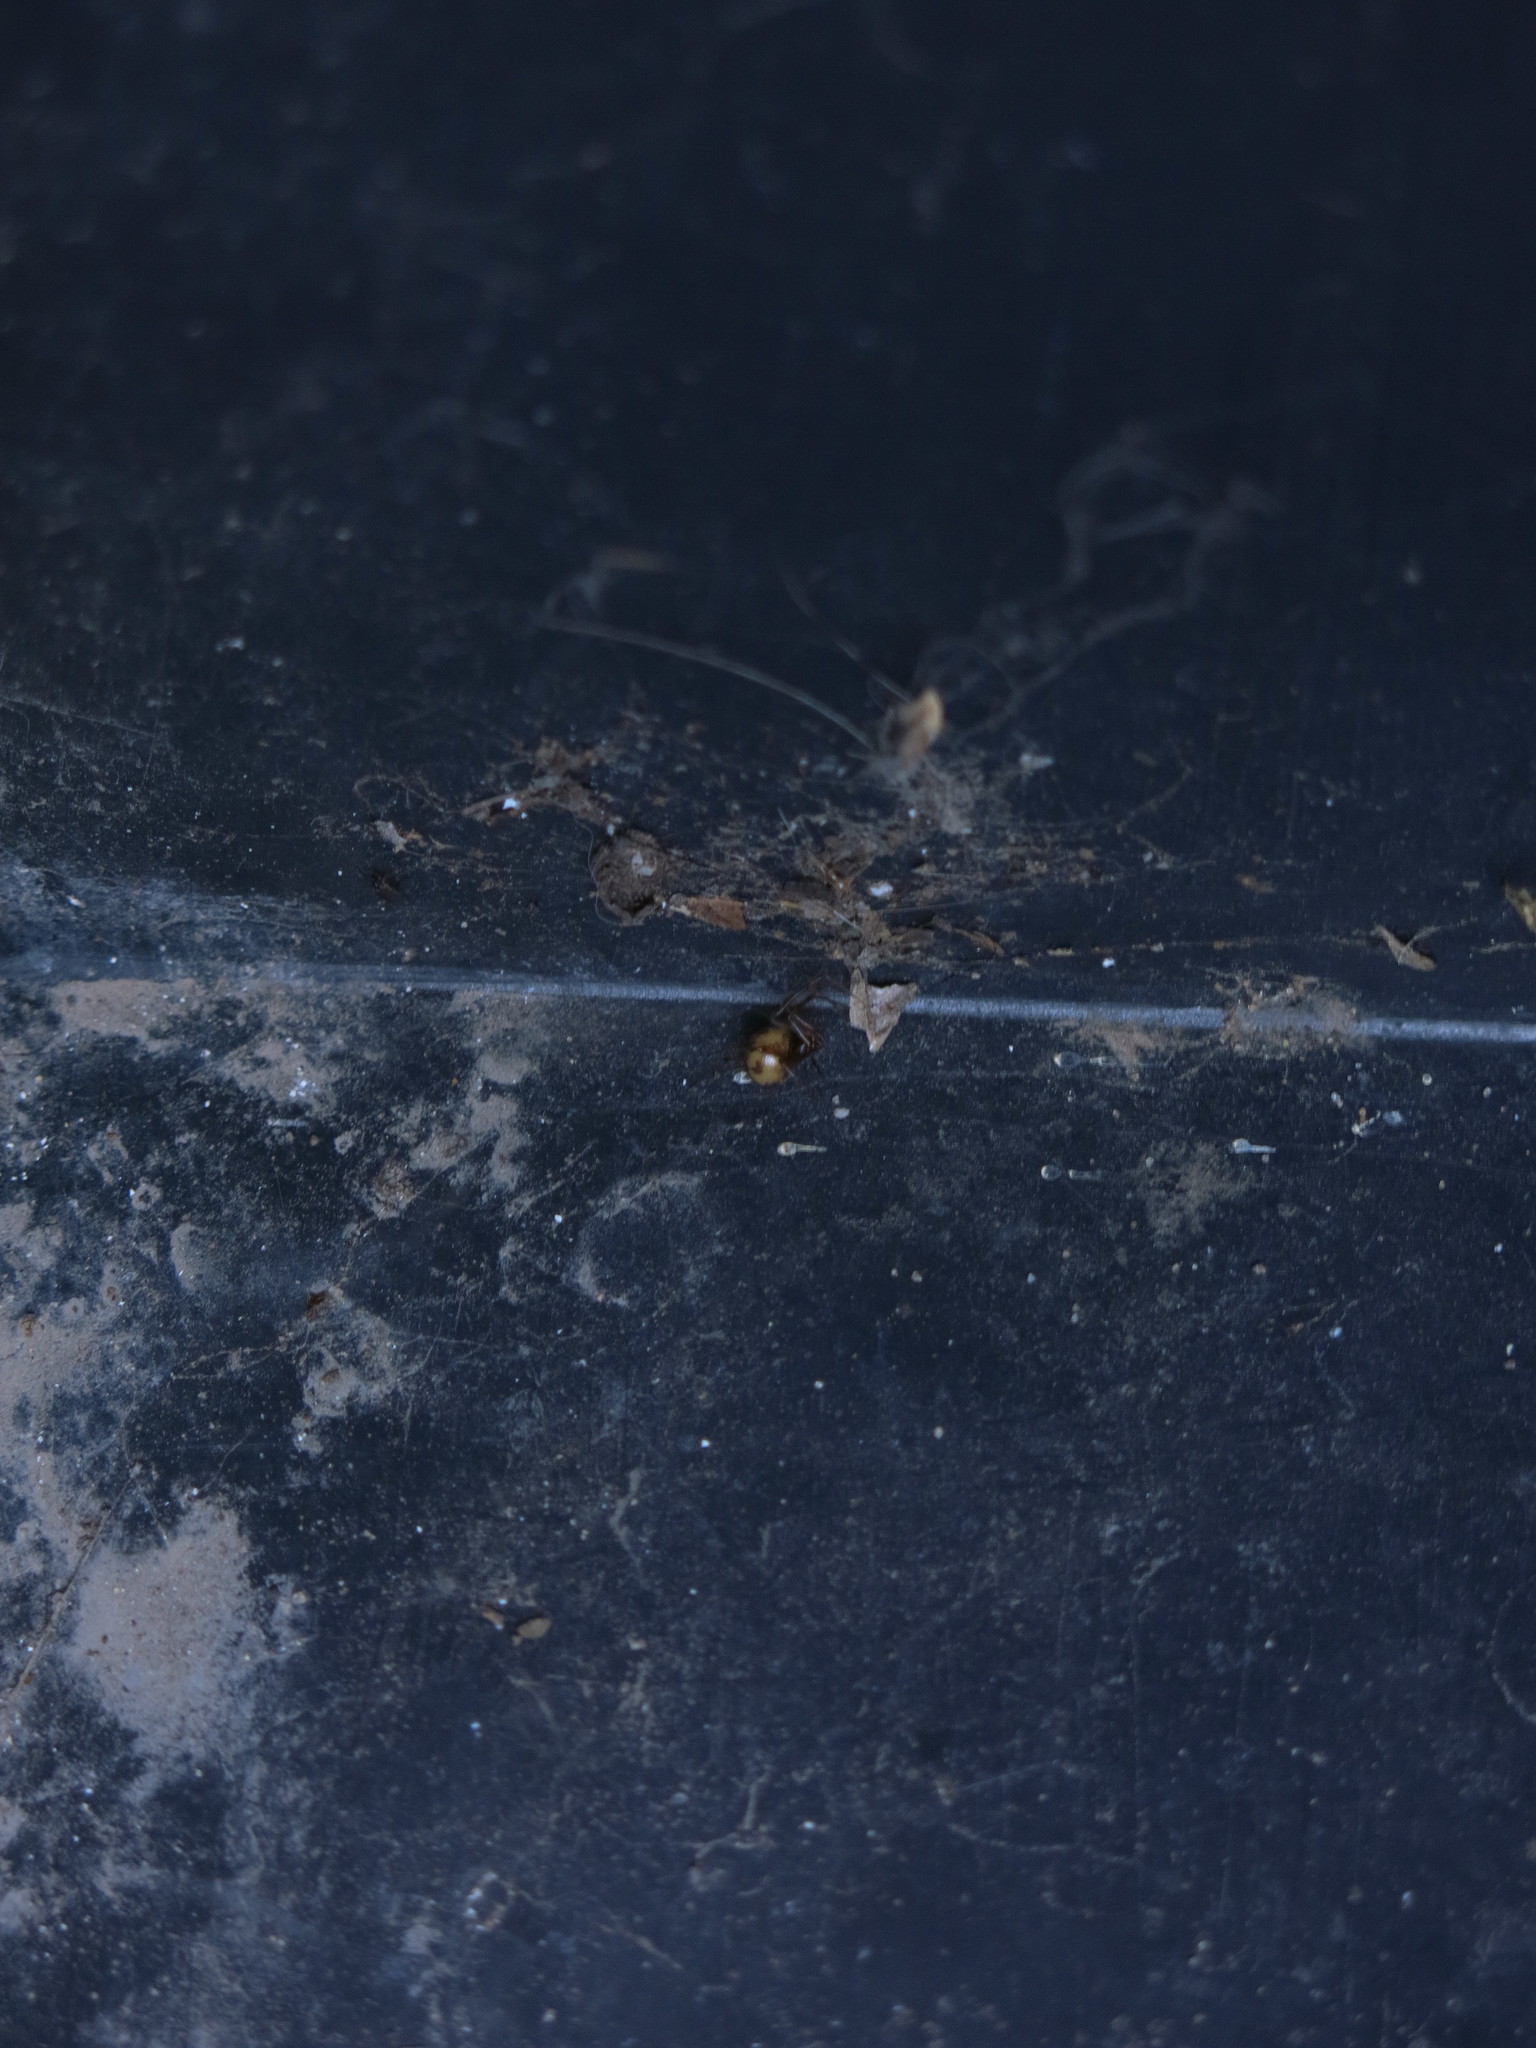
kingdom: Animalia
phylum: Arthropoda
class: Arachnida
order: Araneae
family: Theridiidae
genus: Steatoda
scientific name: Steatoda triangulosa
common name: Triangulate bud spider
